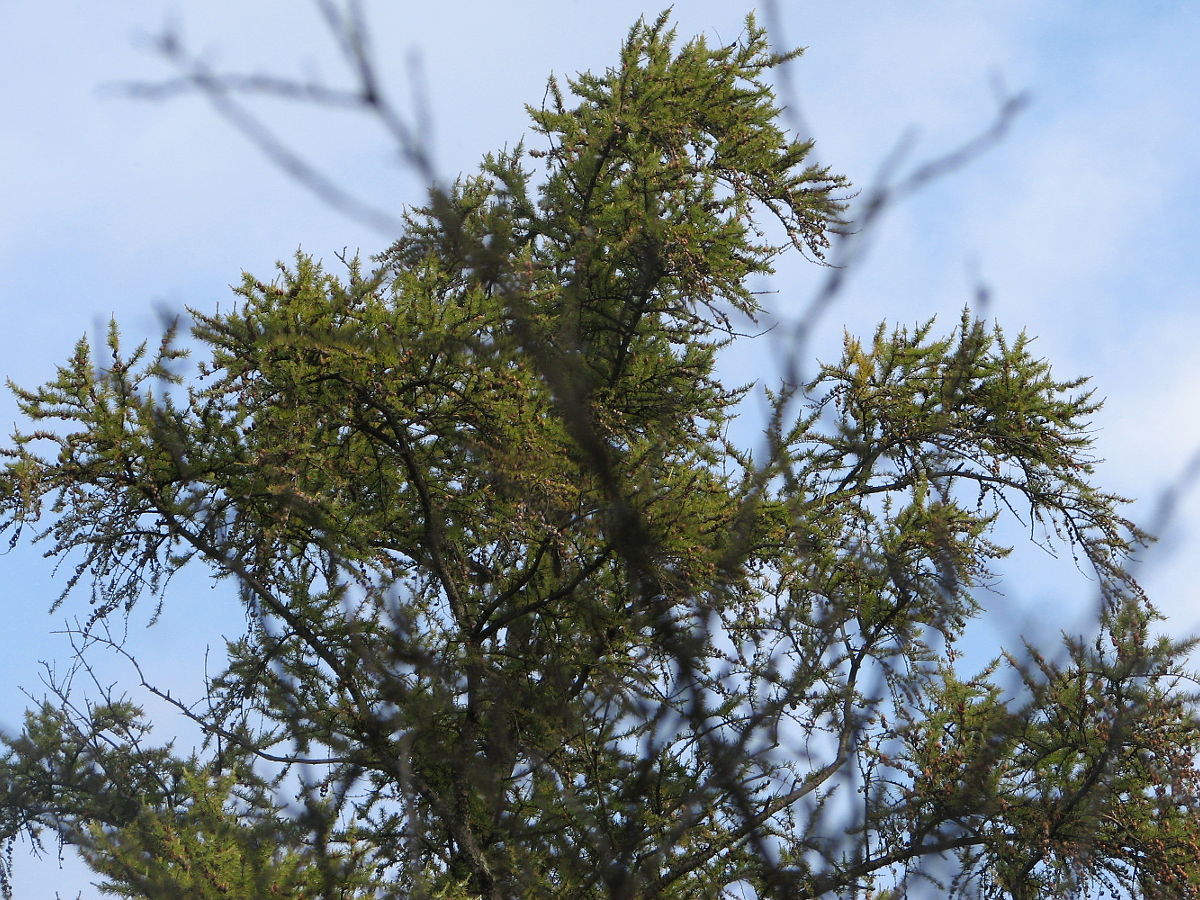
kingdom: Plantae
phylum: Tracheophyta
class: Pinopsida
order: Pinales
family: Pinaceae
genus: Larix
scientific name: Larix laricina
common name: American larch
